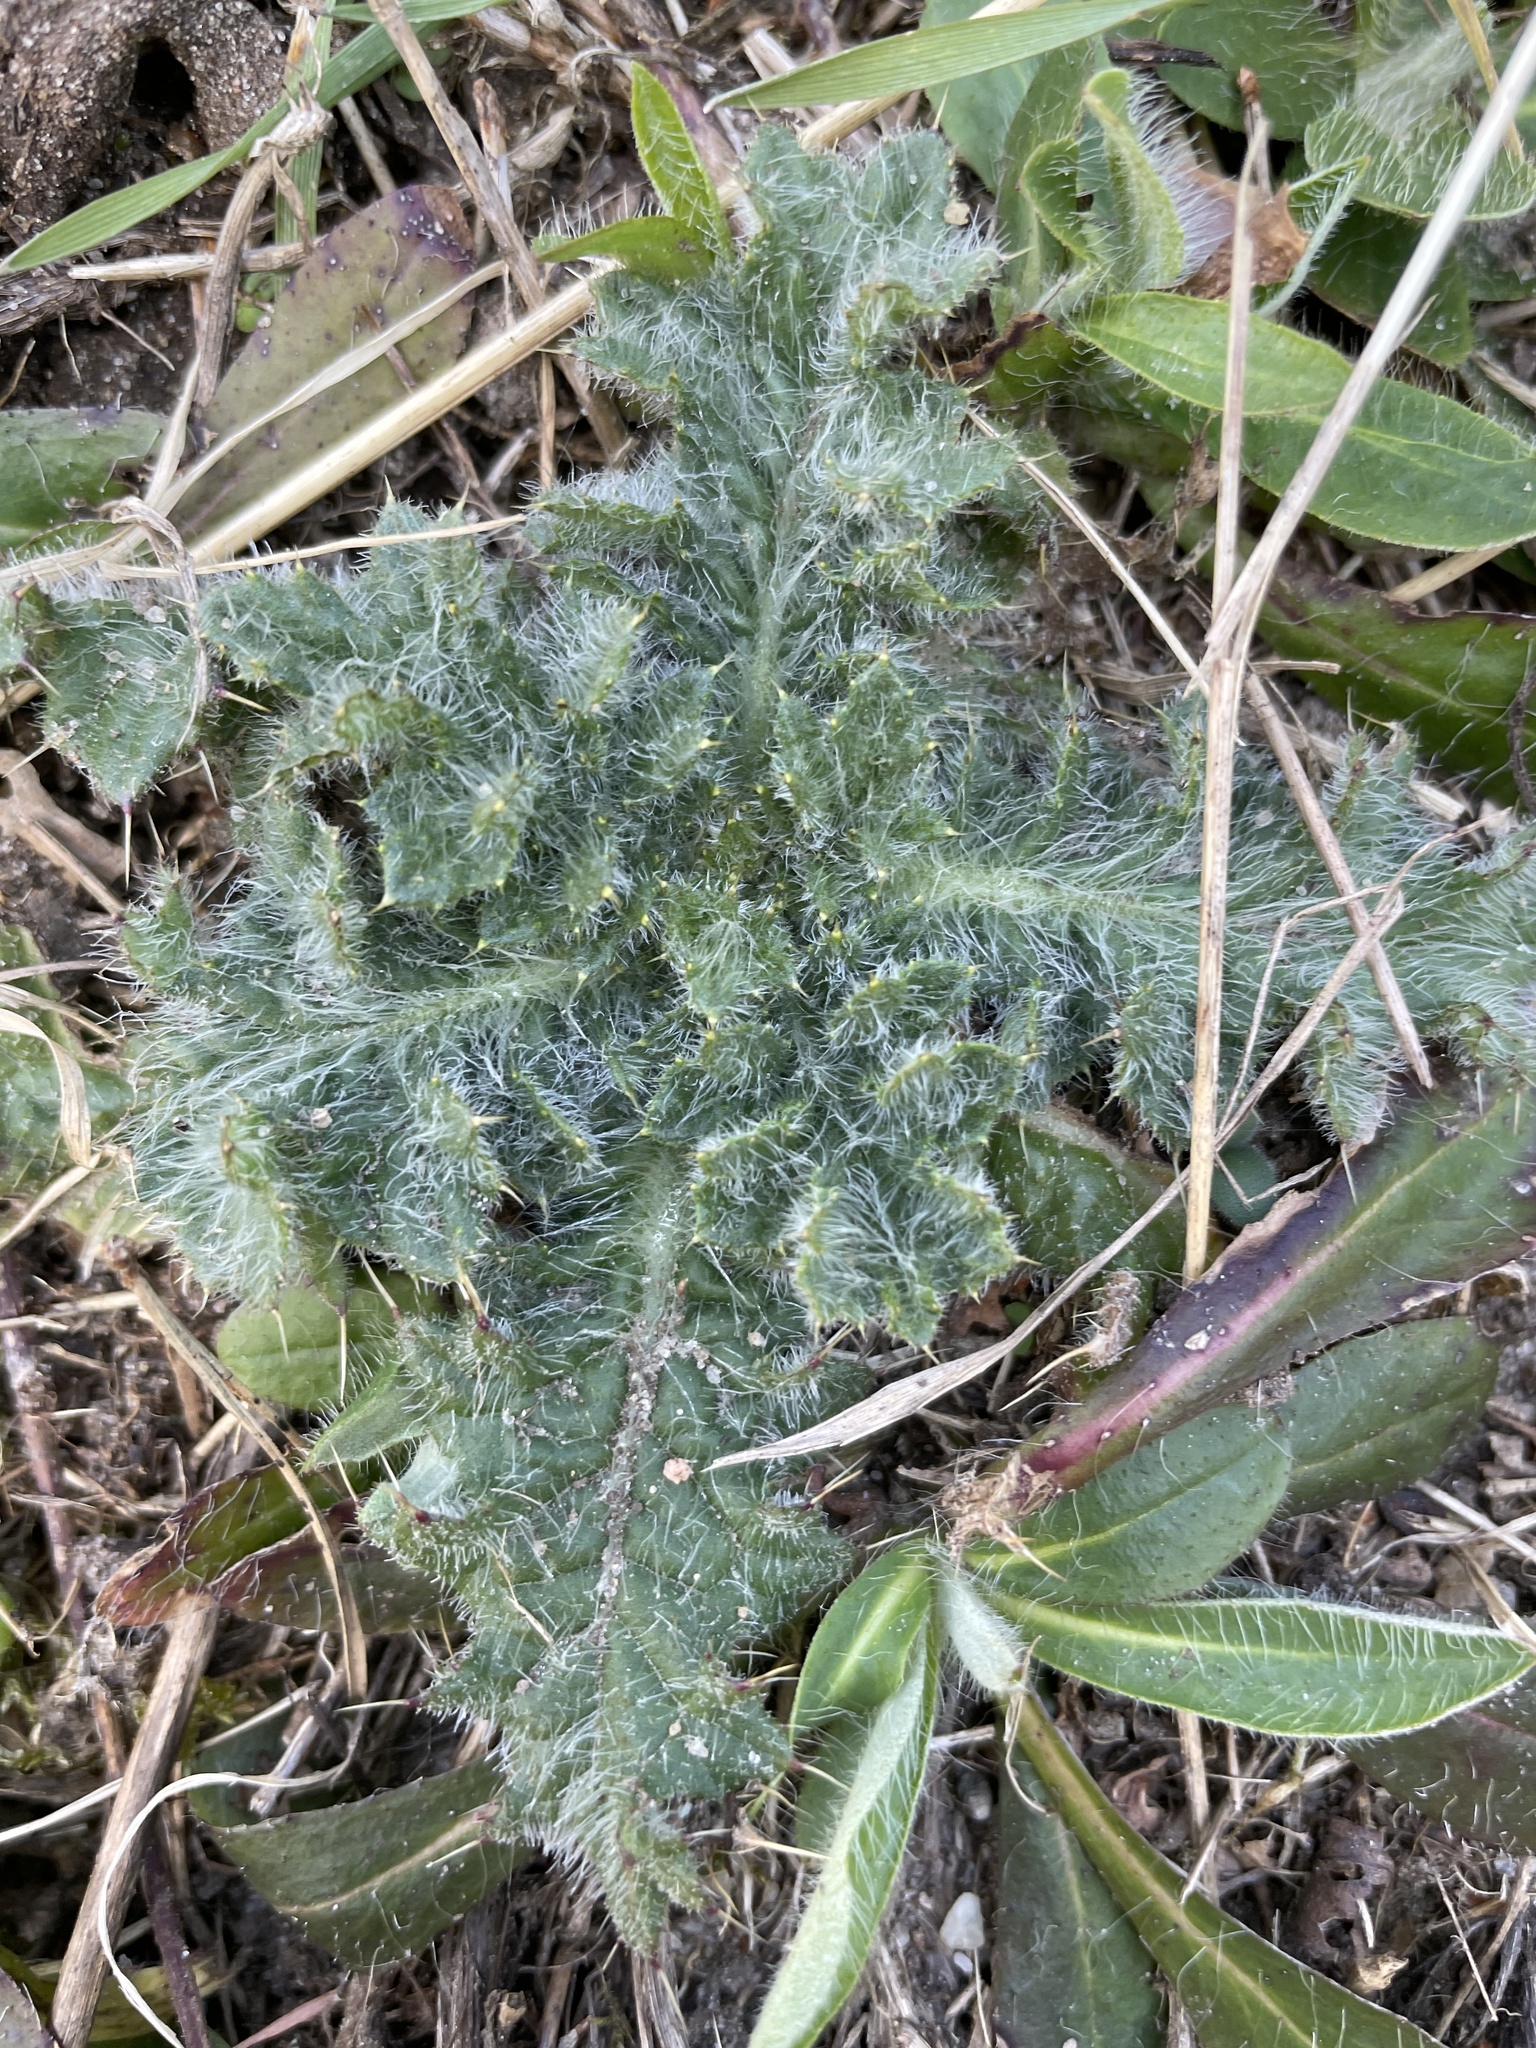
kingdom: Plantae
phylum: Tracheophyta
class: Magnoliopsida
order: Asterales
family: Asteraceae
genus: Cirsium
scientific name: Cirsium vulgare
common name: Bull thistle
